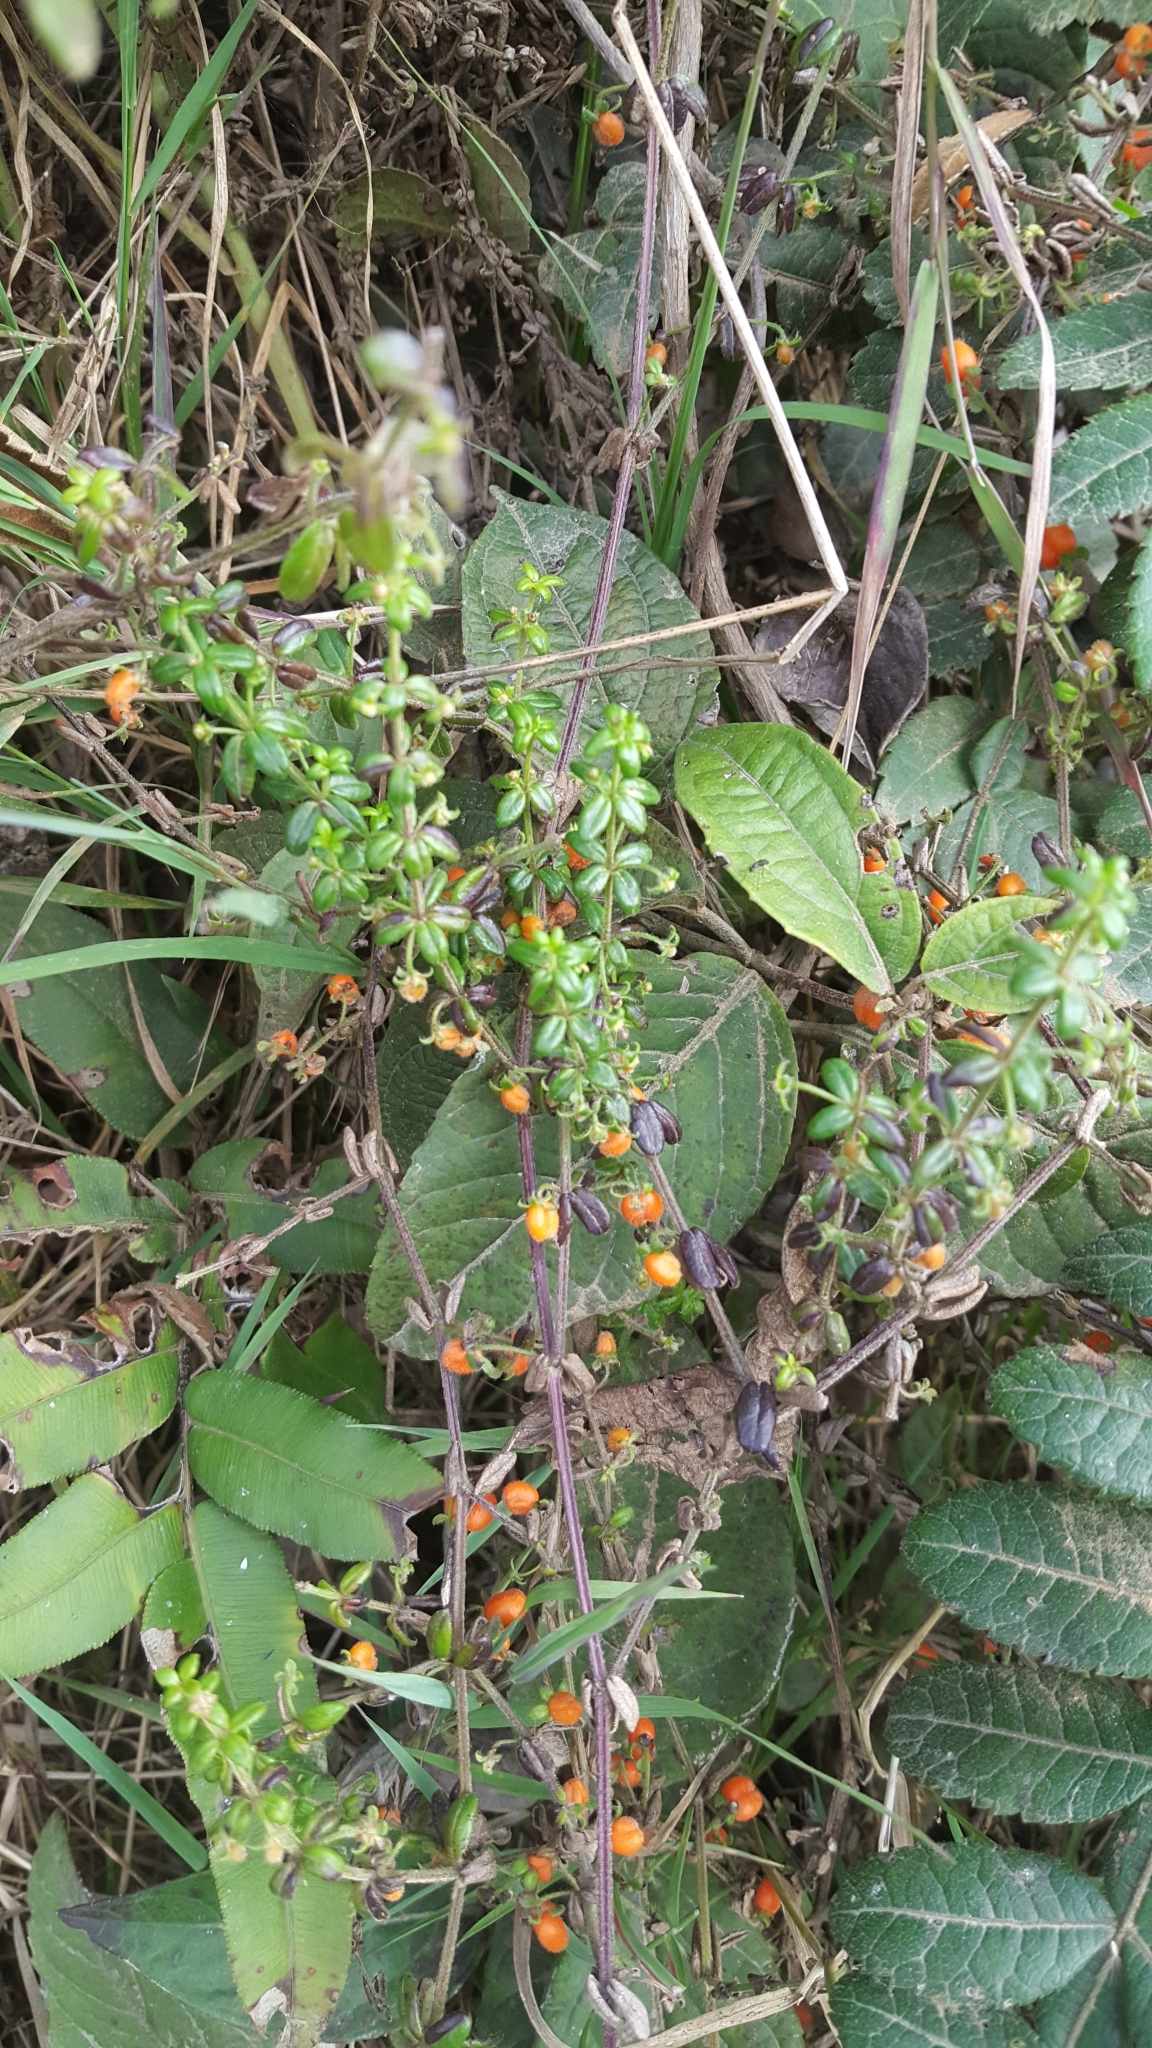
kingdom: Plantae
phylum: Tracheophyta
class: Magnoliopsida
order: Gentianales
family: Rubiaceae
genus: Galium
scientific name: Galium hypocarpium
